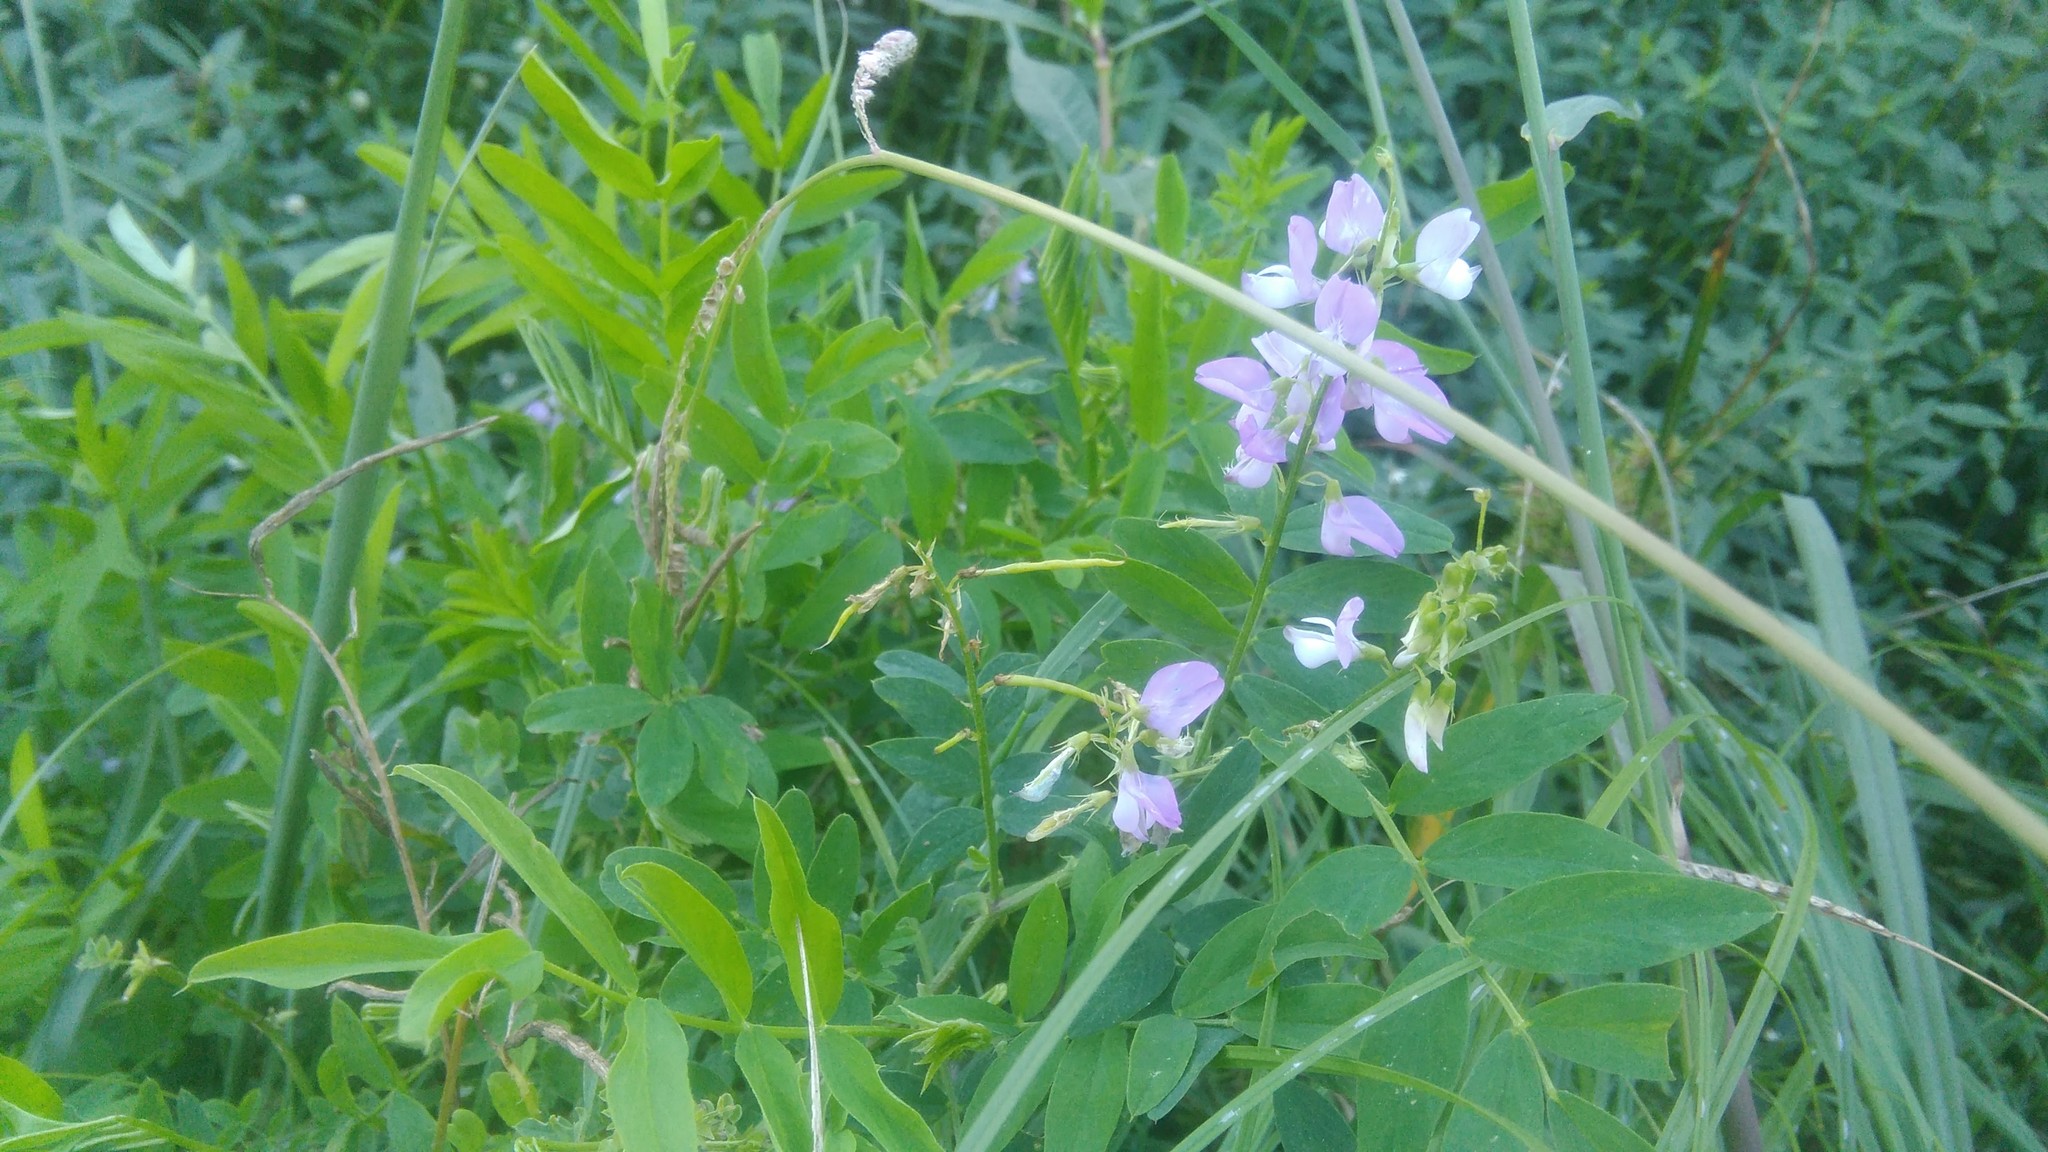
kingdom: Plantae
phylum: Tracheophyta
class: Magnoliopsida
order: Fabales
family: Fabaceae
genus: Galega
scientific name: Galega officinalis
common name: Goat's-rue
